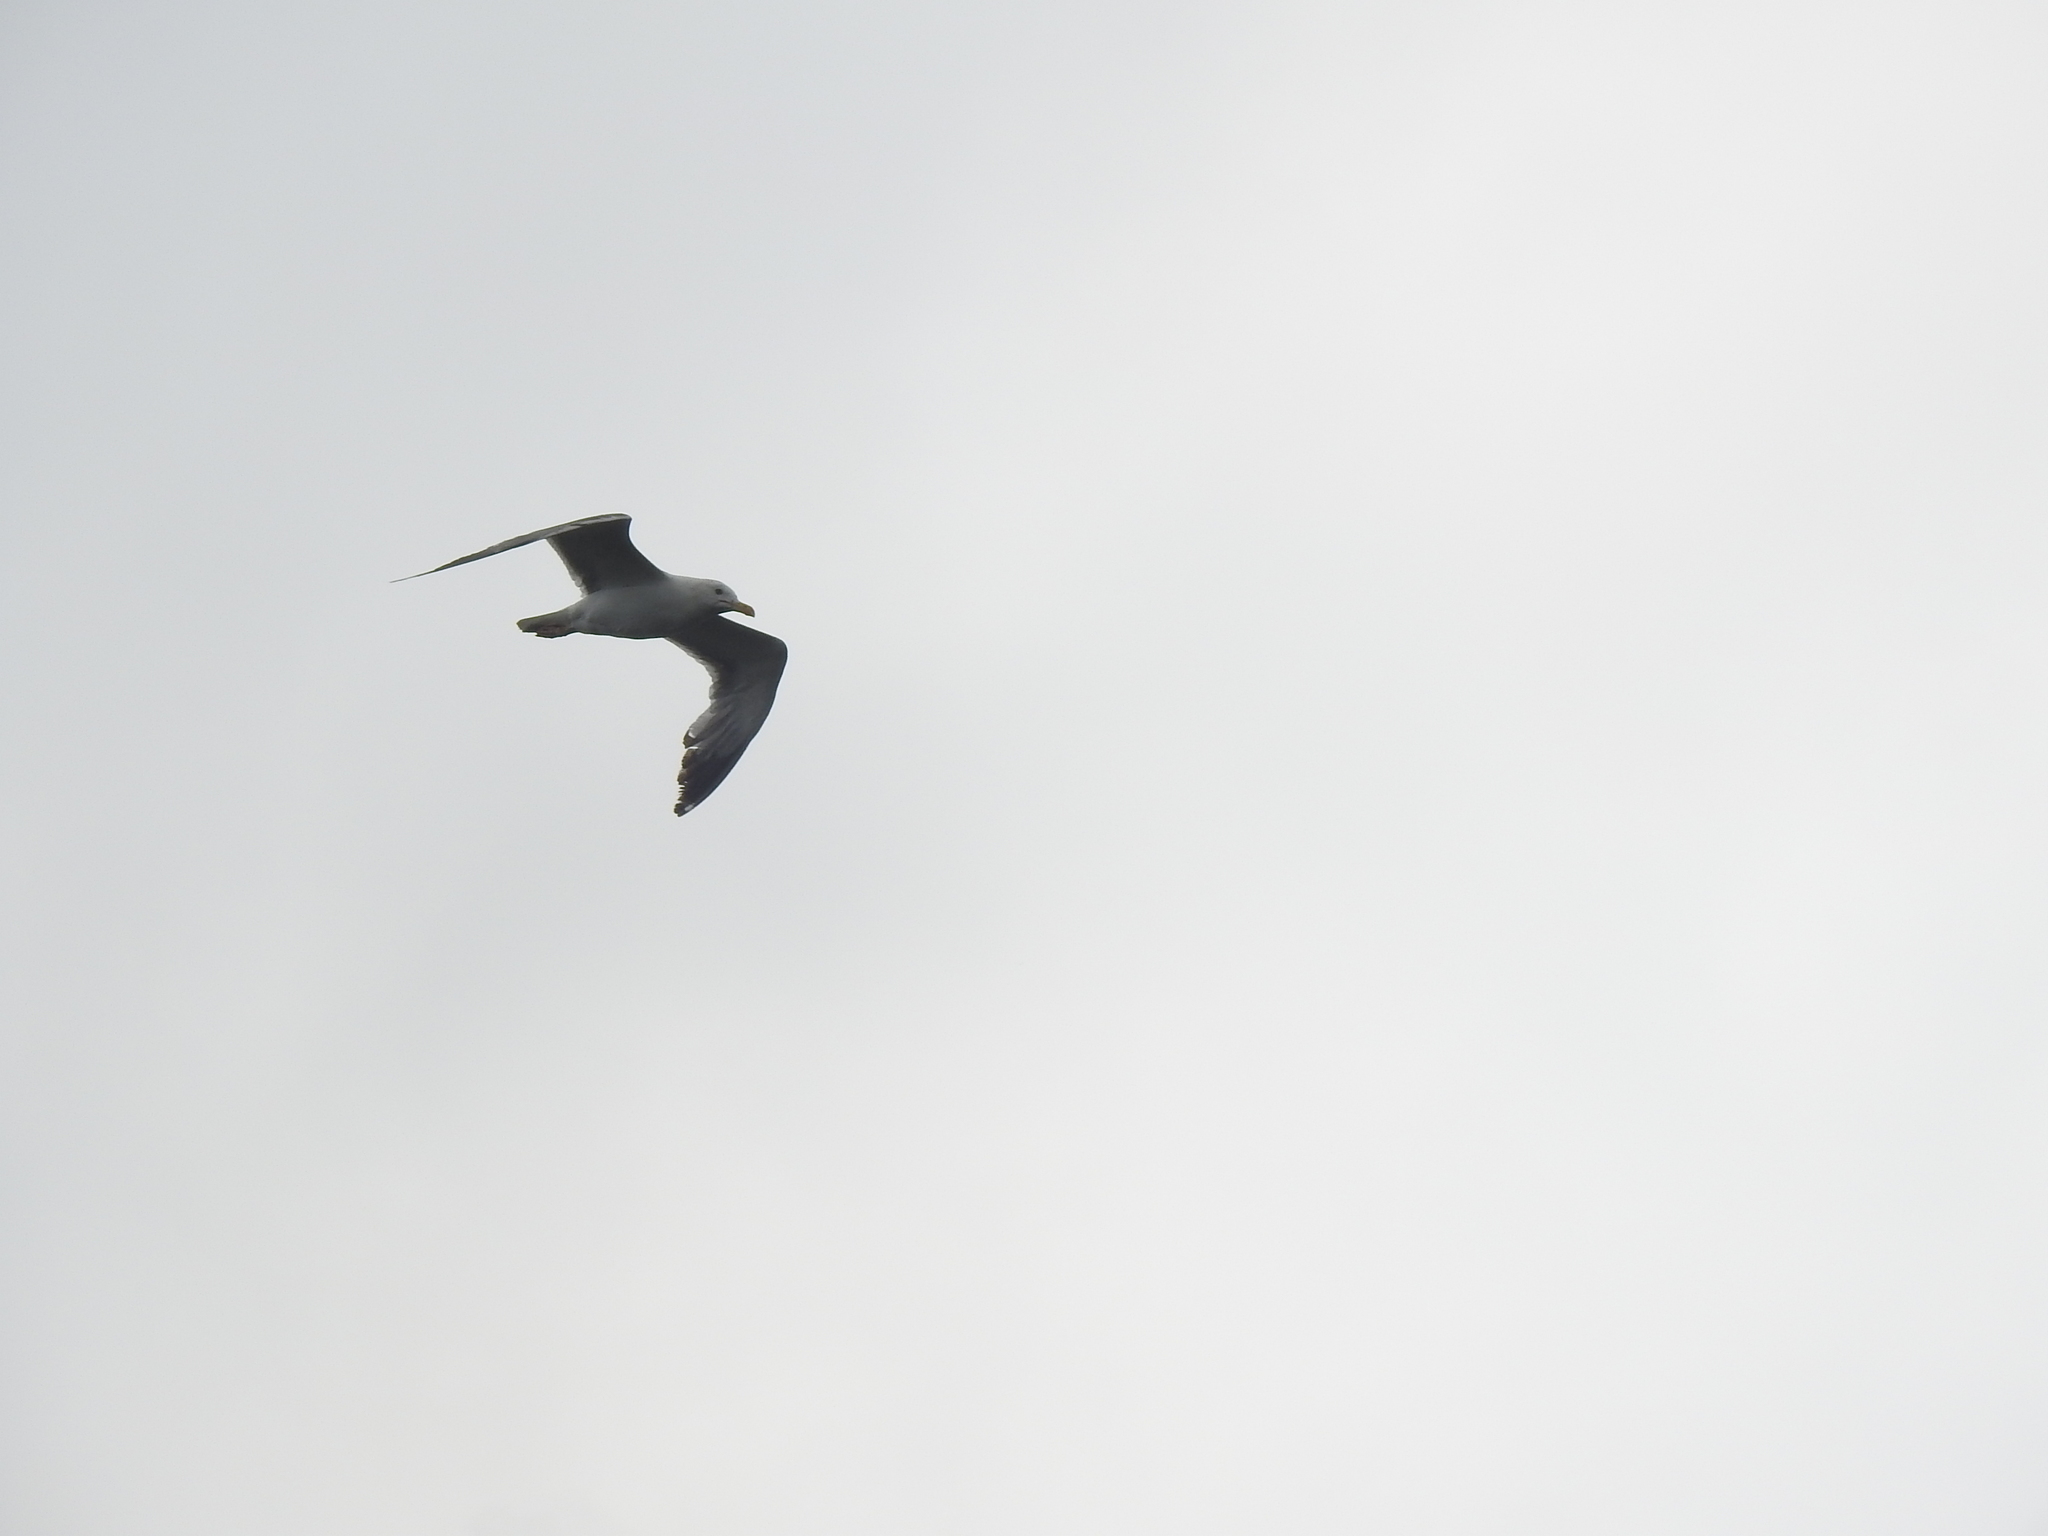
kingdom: Animalia
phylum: Chordata
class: Aves
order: Charadriiformes
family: Laridae
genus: Larus
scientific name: Larus fuscus
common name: Lesser black-backed gull
